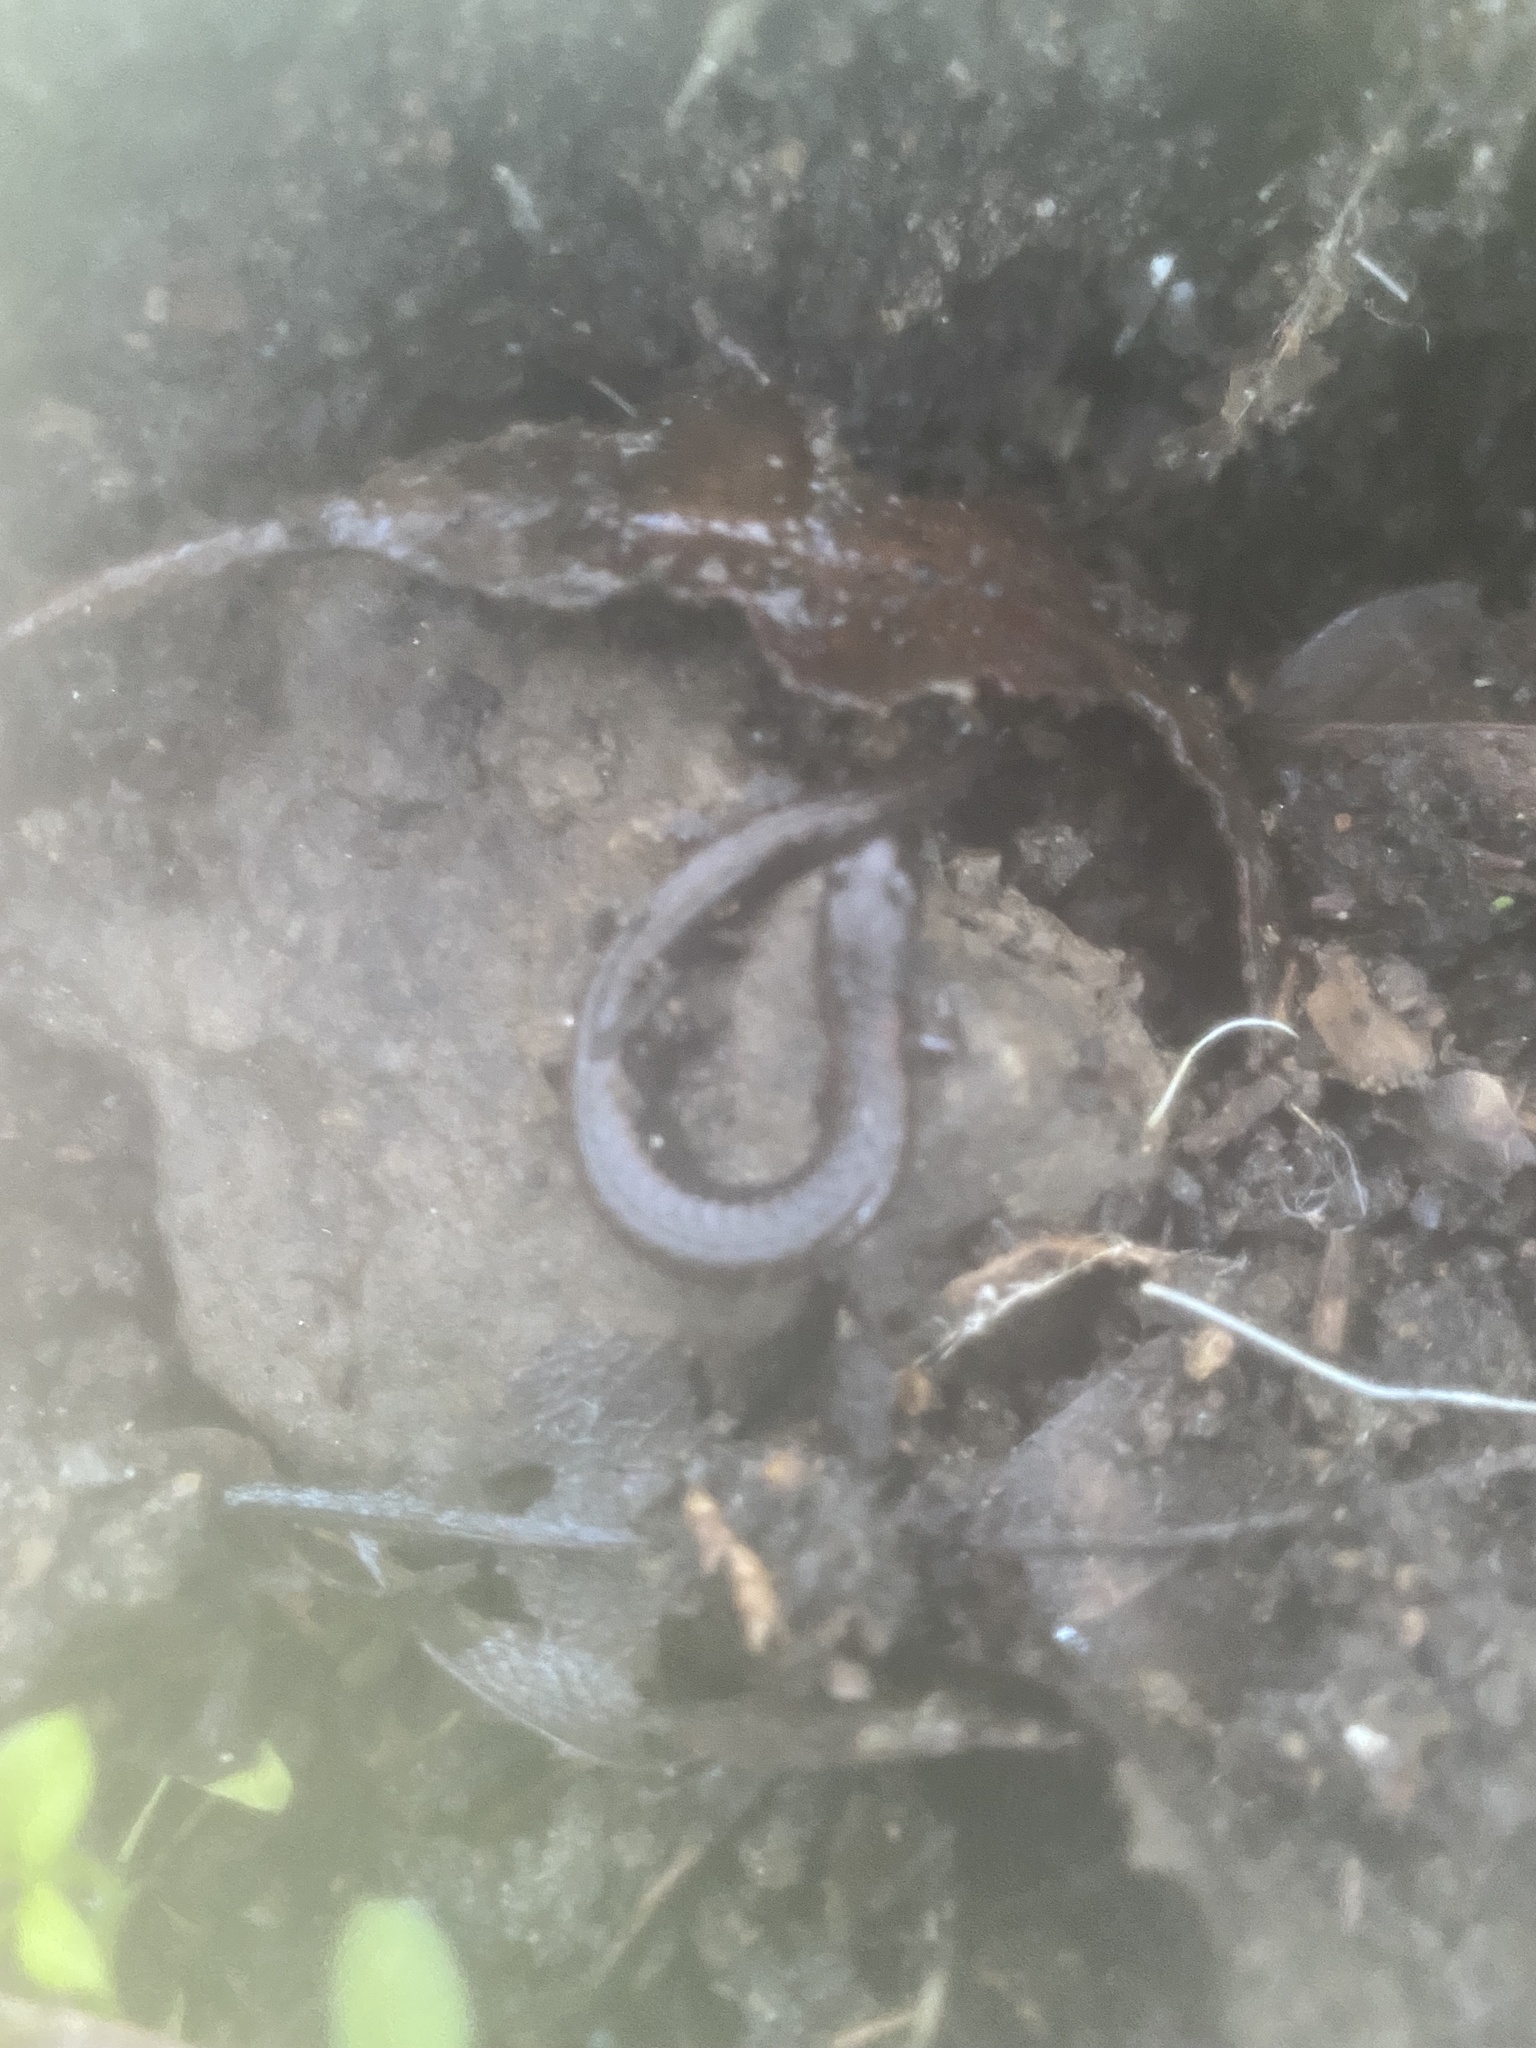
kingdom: Animalia
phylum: Chordata
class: Amphibia
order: Caudata
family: Plethodontidae
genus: Batrachoseps
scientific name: Batrachoseps attenuatus
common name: California slender salamander
